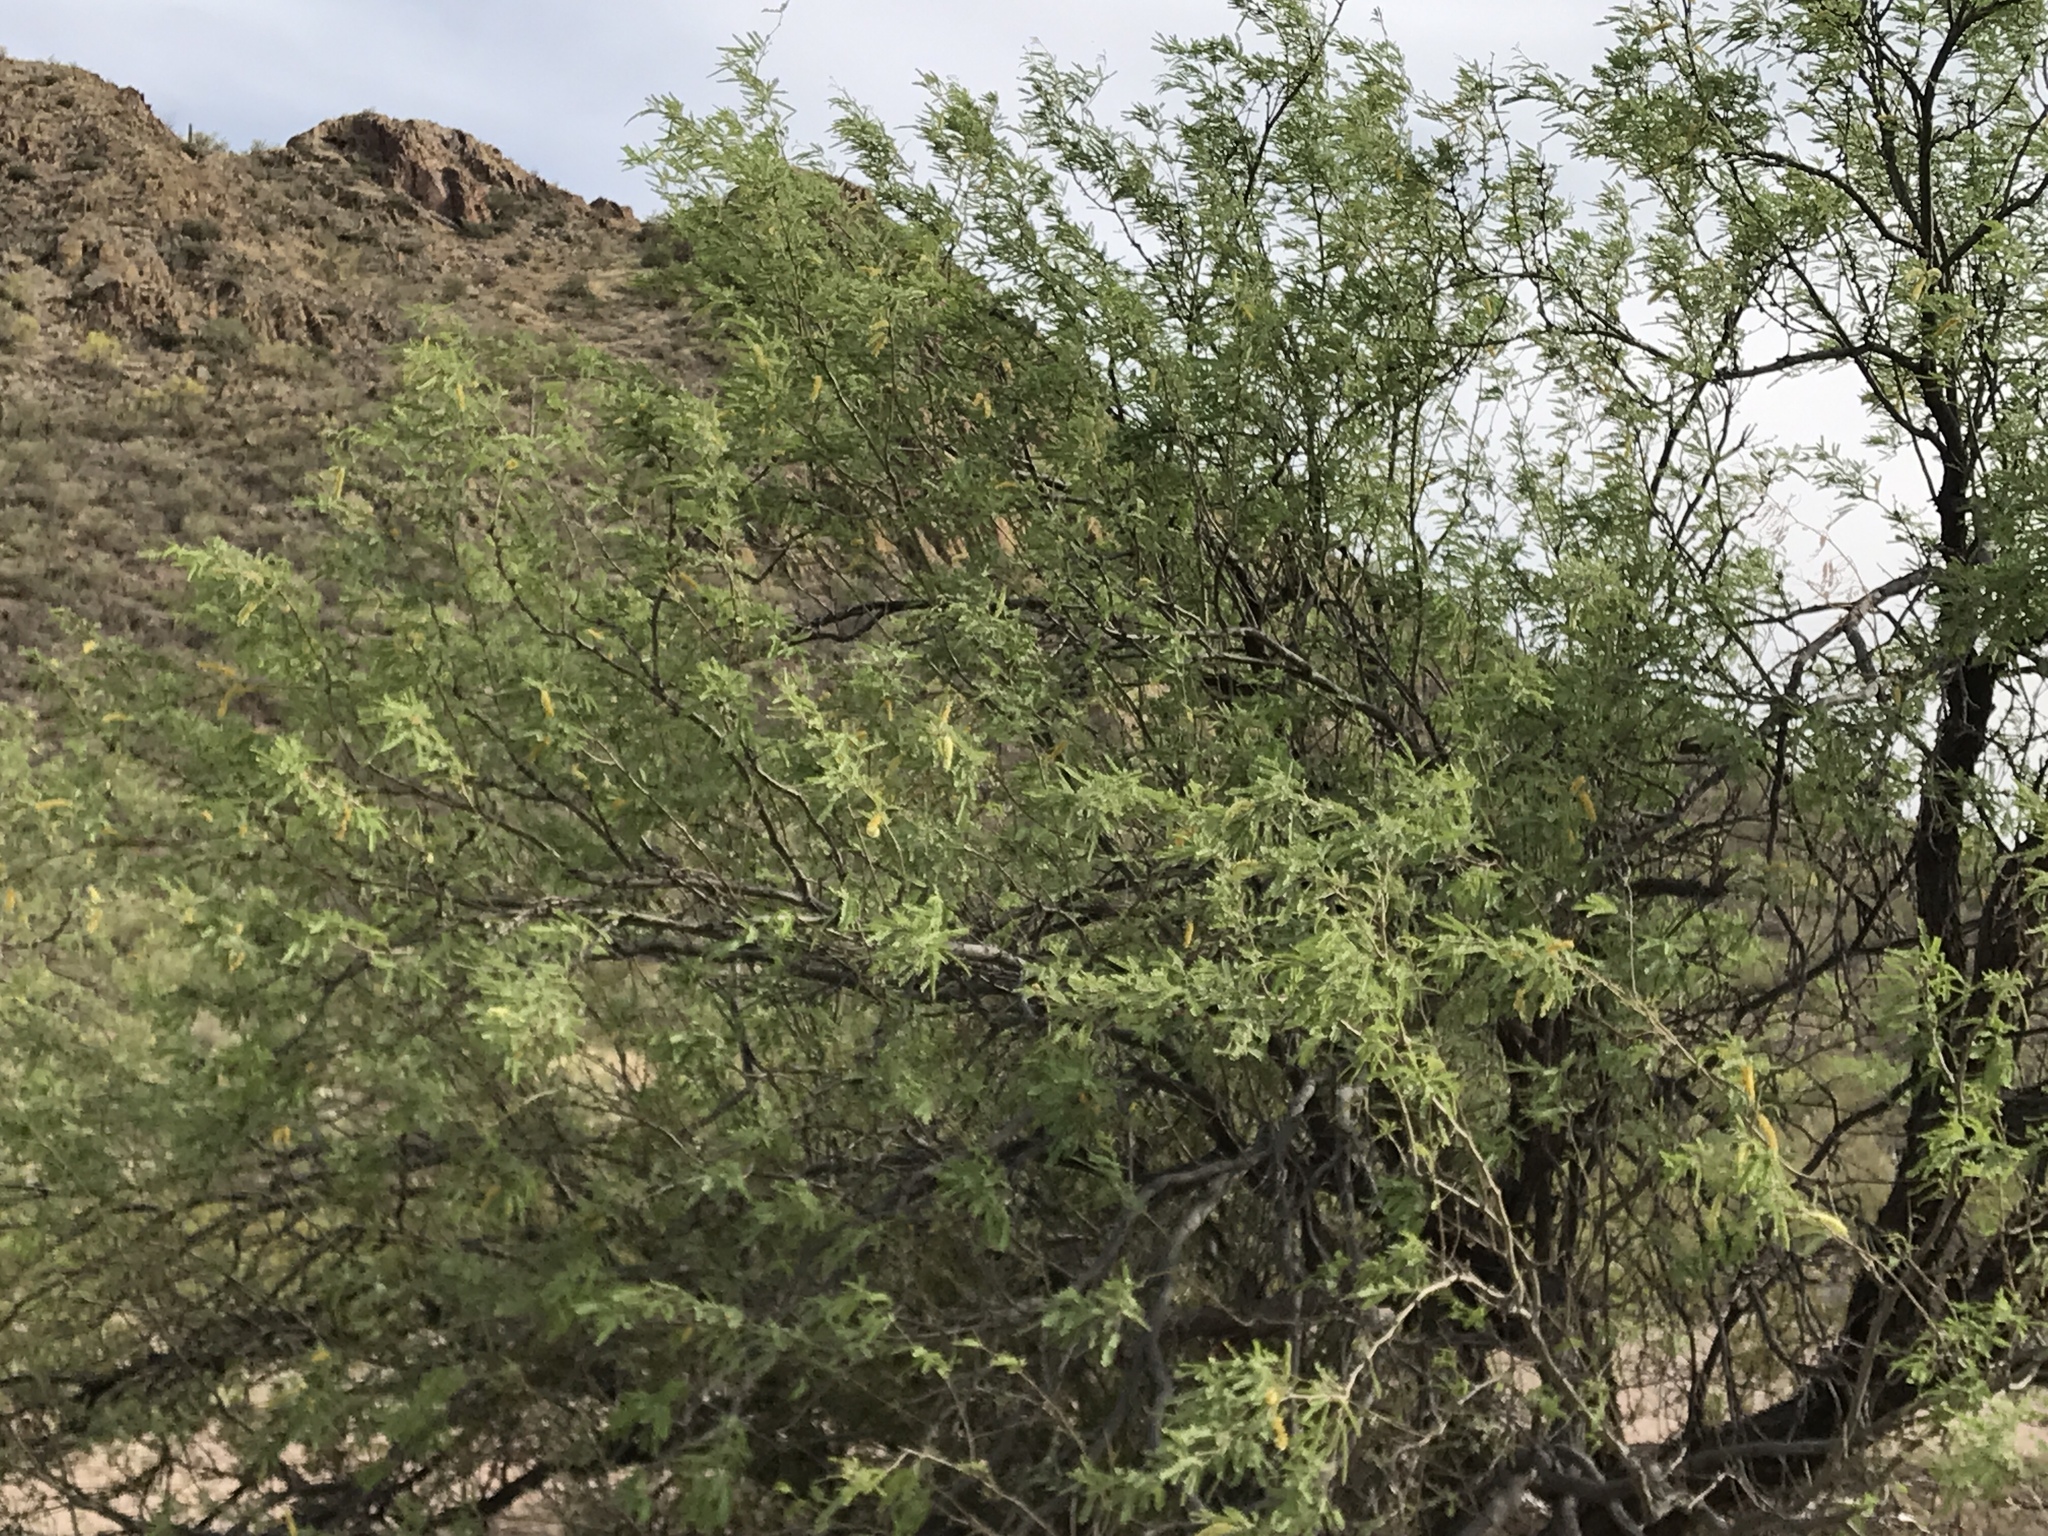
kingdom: Plantae
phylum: Tracheophyta
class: Magnoliopsida
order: Fabales
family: Fabaceae
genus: Prosopis
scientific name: Prosopis velutina
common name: Velvet mesquite
